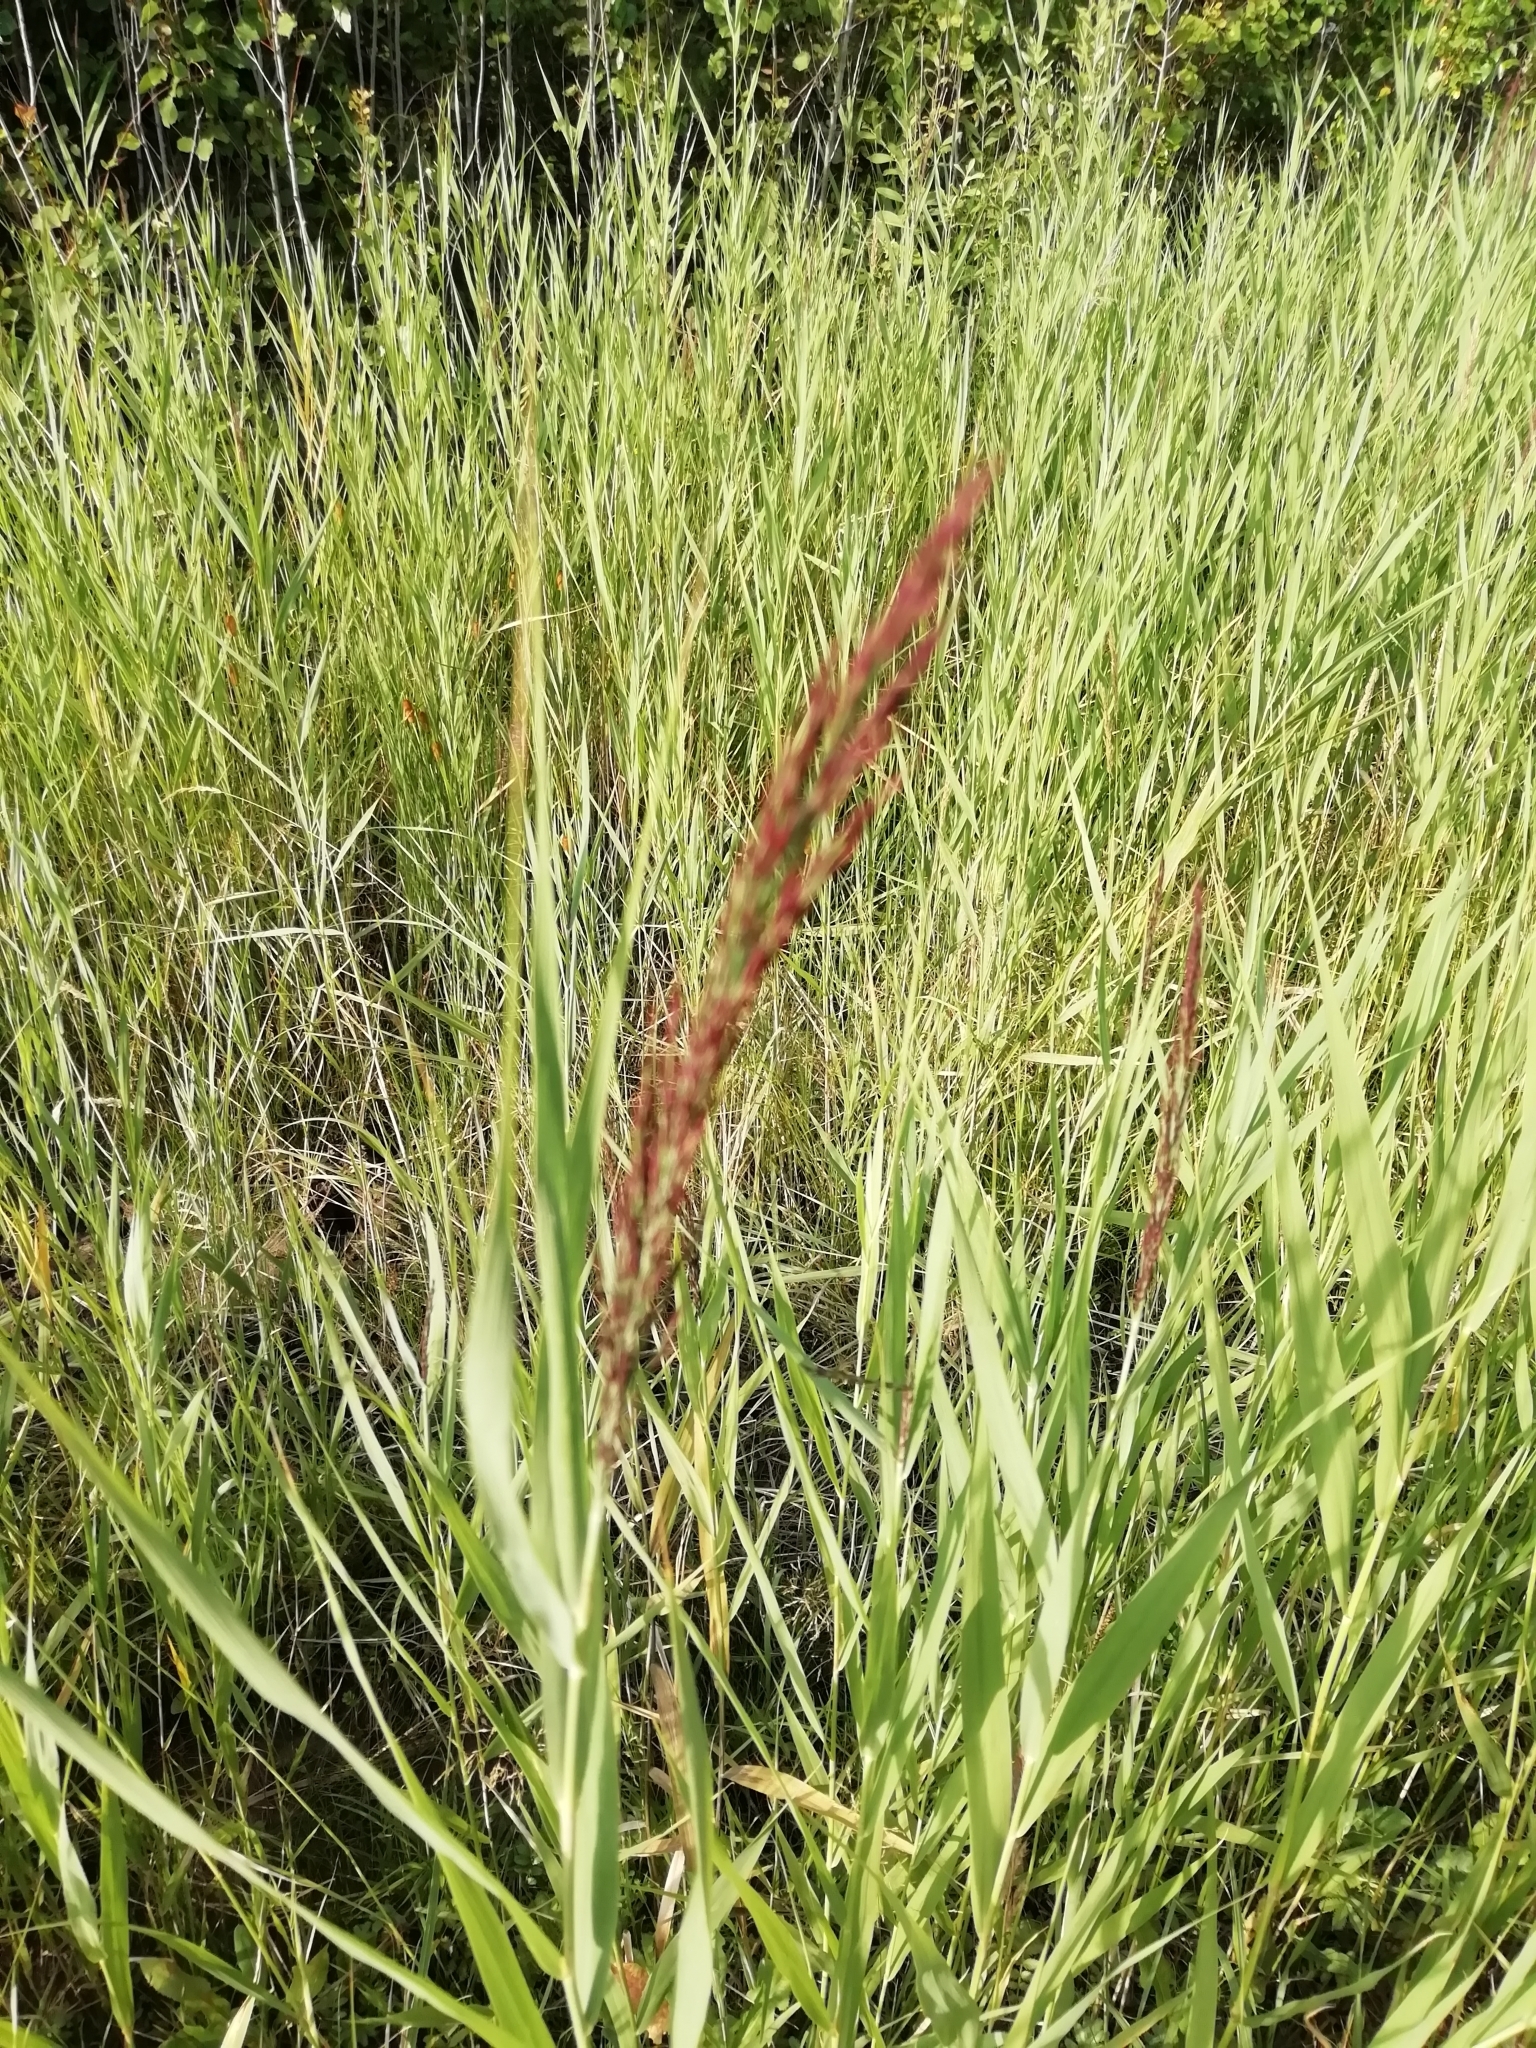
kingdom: Plantae
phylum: Tracheophyta
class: Liliopsida
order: Poales
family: Poaceae
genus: Phragmites
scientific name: Phragmites australis
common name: Common reed
